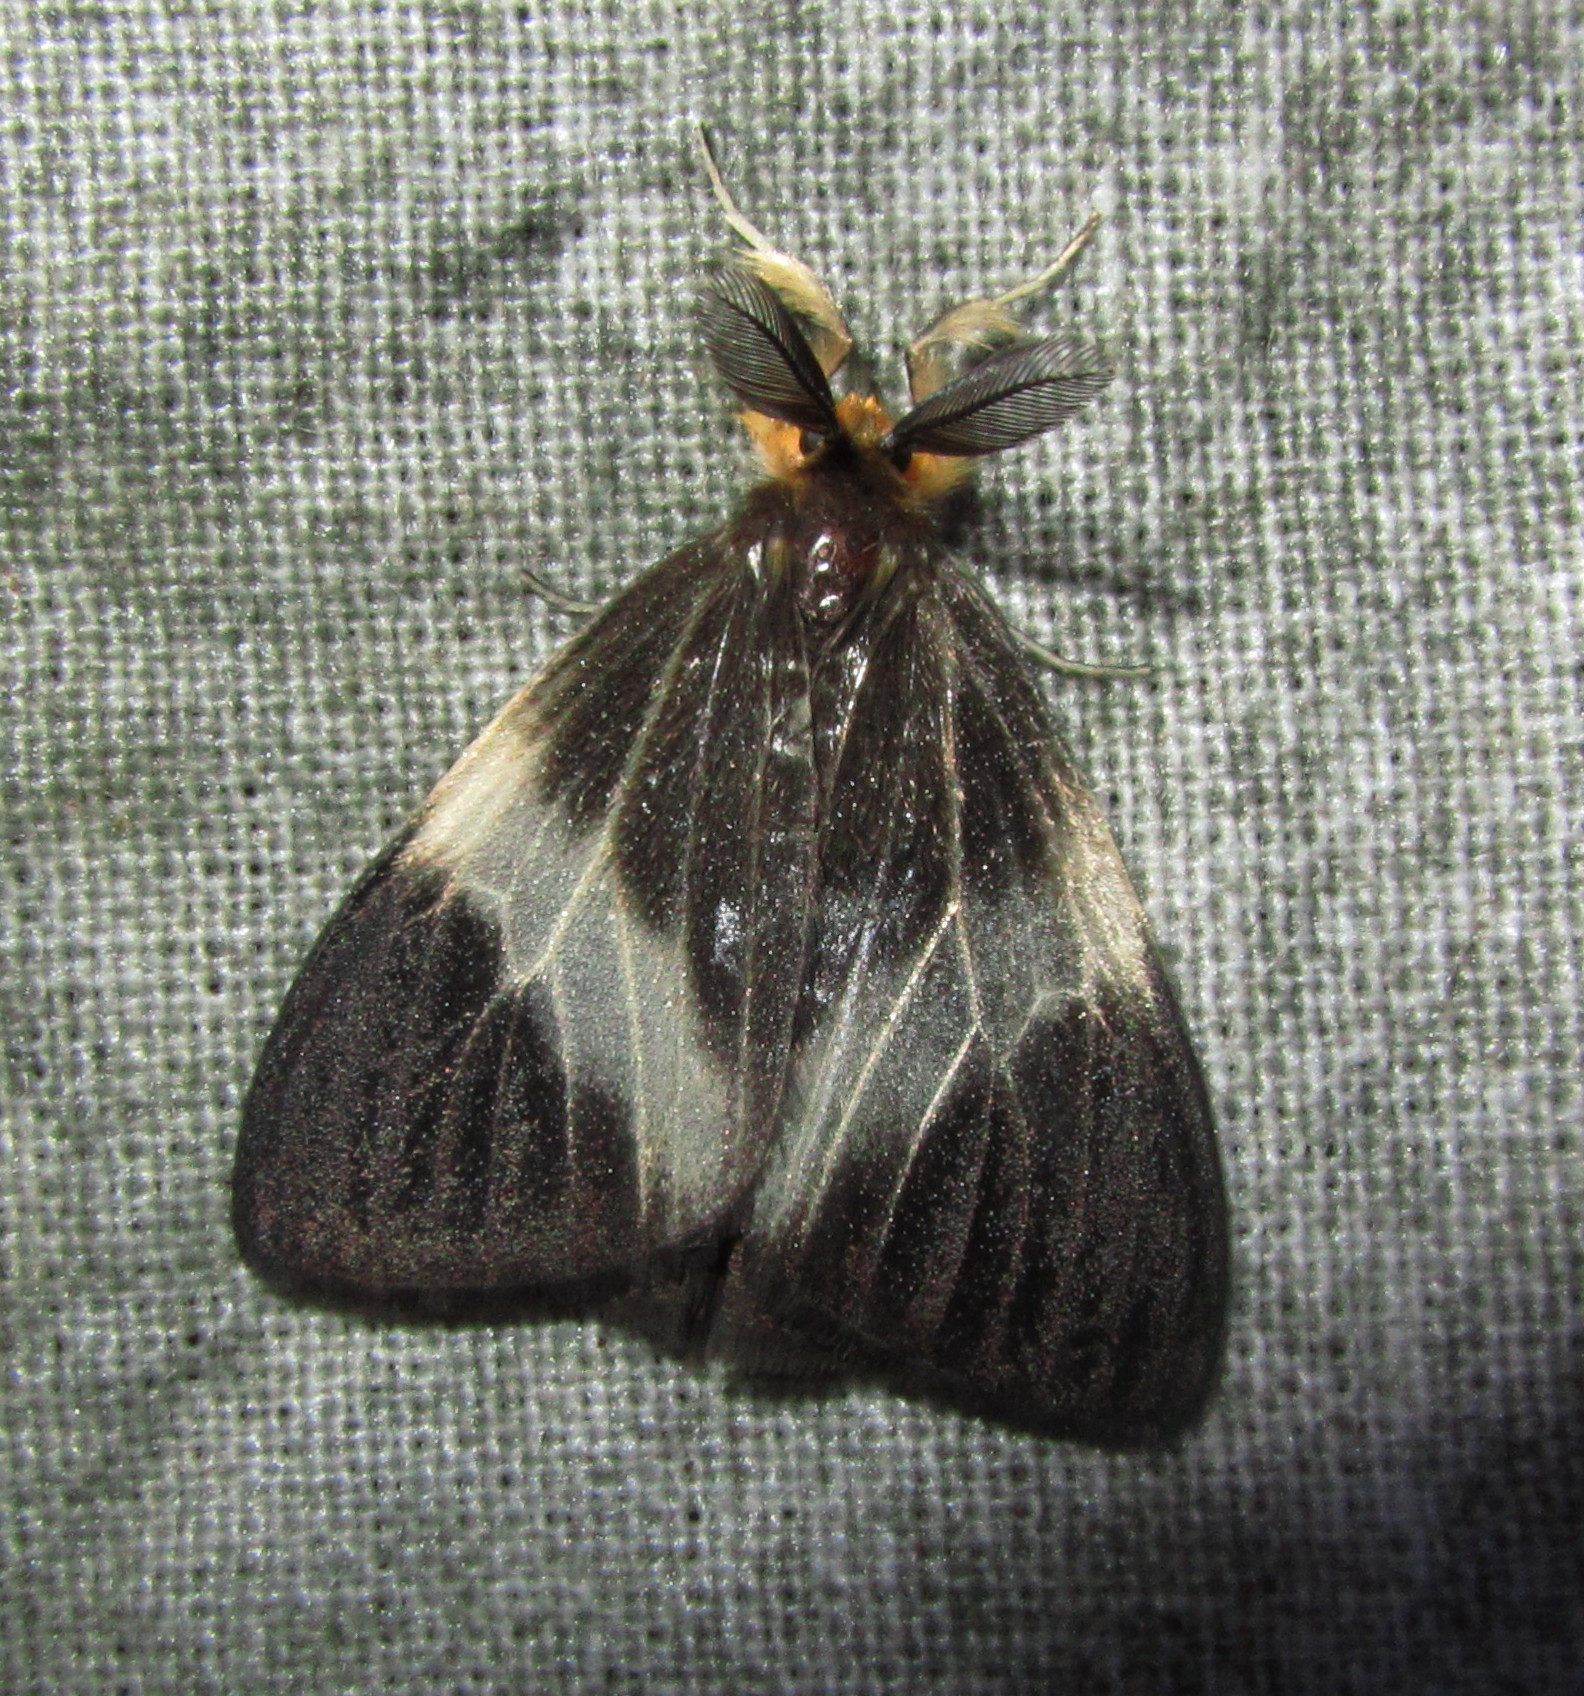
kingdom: Animalia
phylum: Arthropoda
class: Insecta
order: Lepidoptera
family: Erebidae
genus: Pantana
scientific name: Pantana luteiceps
